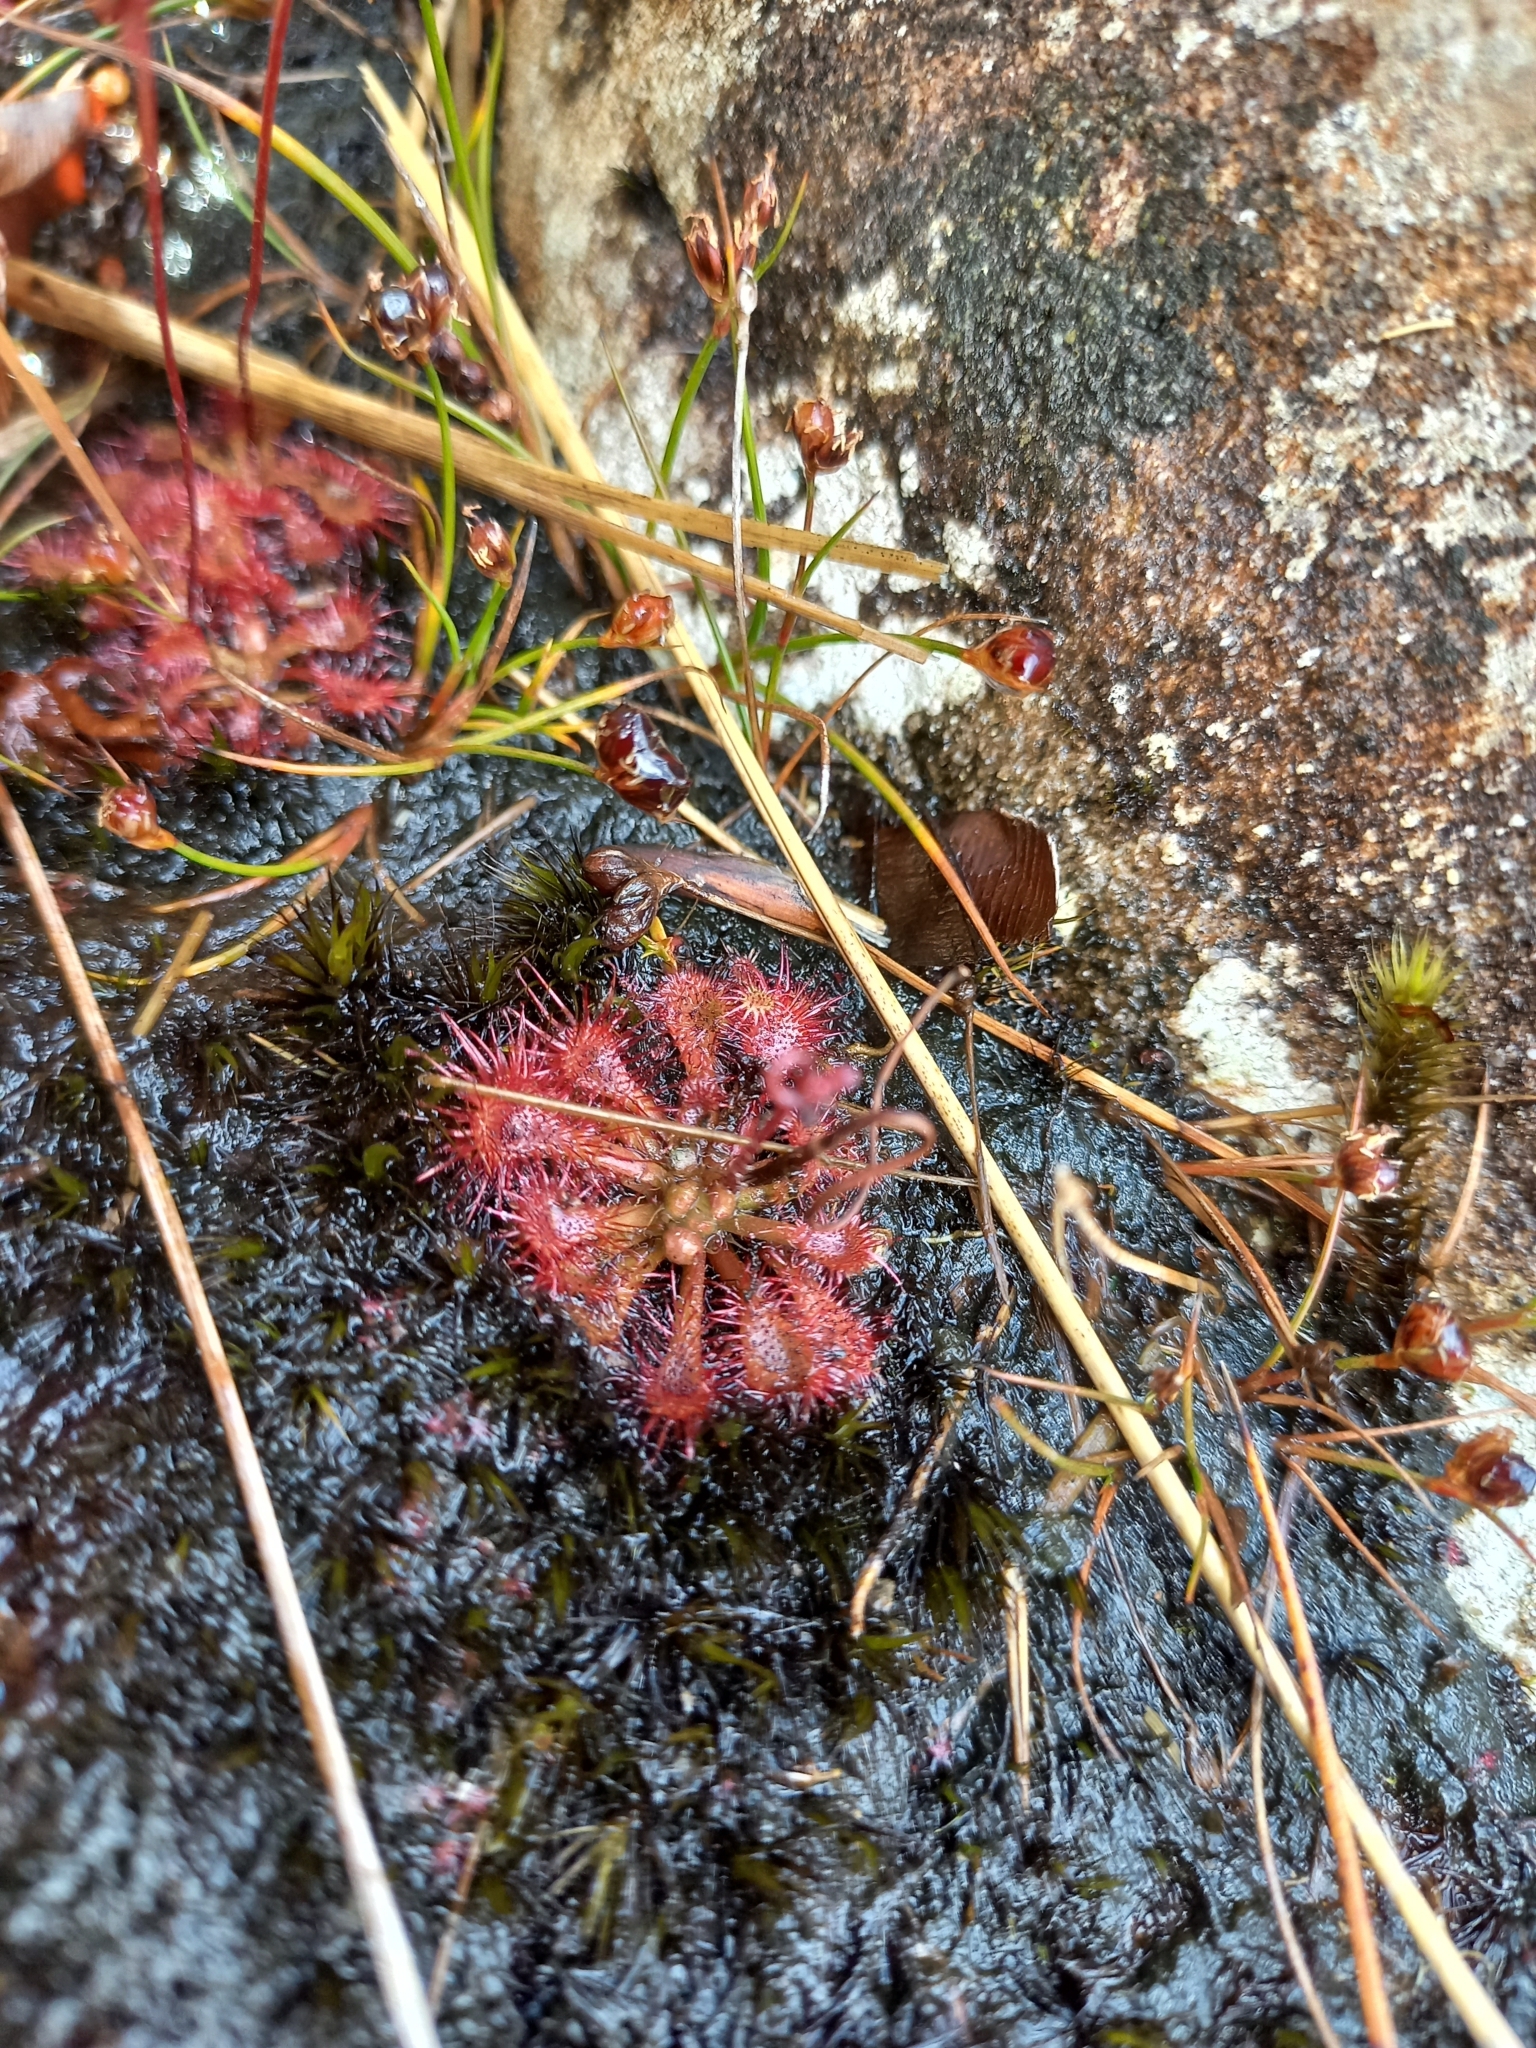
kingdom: Plantae
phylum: Tracheophyta
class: Magnoliopsida
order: Caryophyllales
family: Droseraceae
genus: Drosera
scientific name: Drosera spatulata
